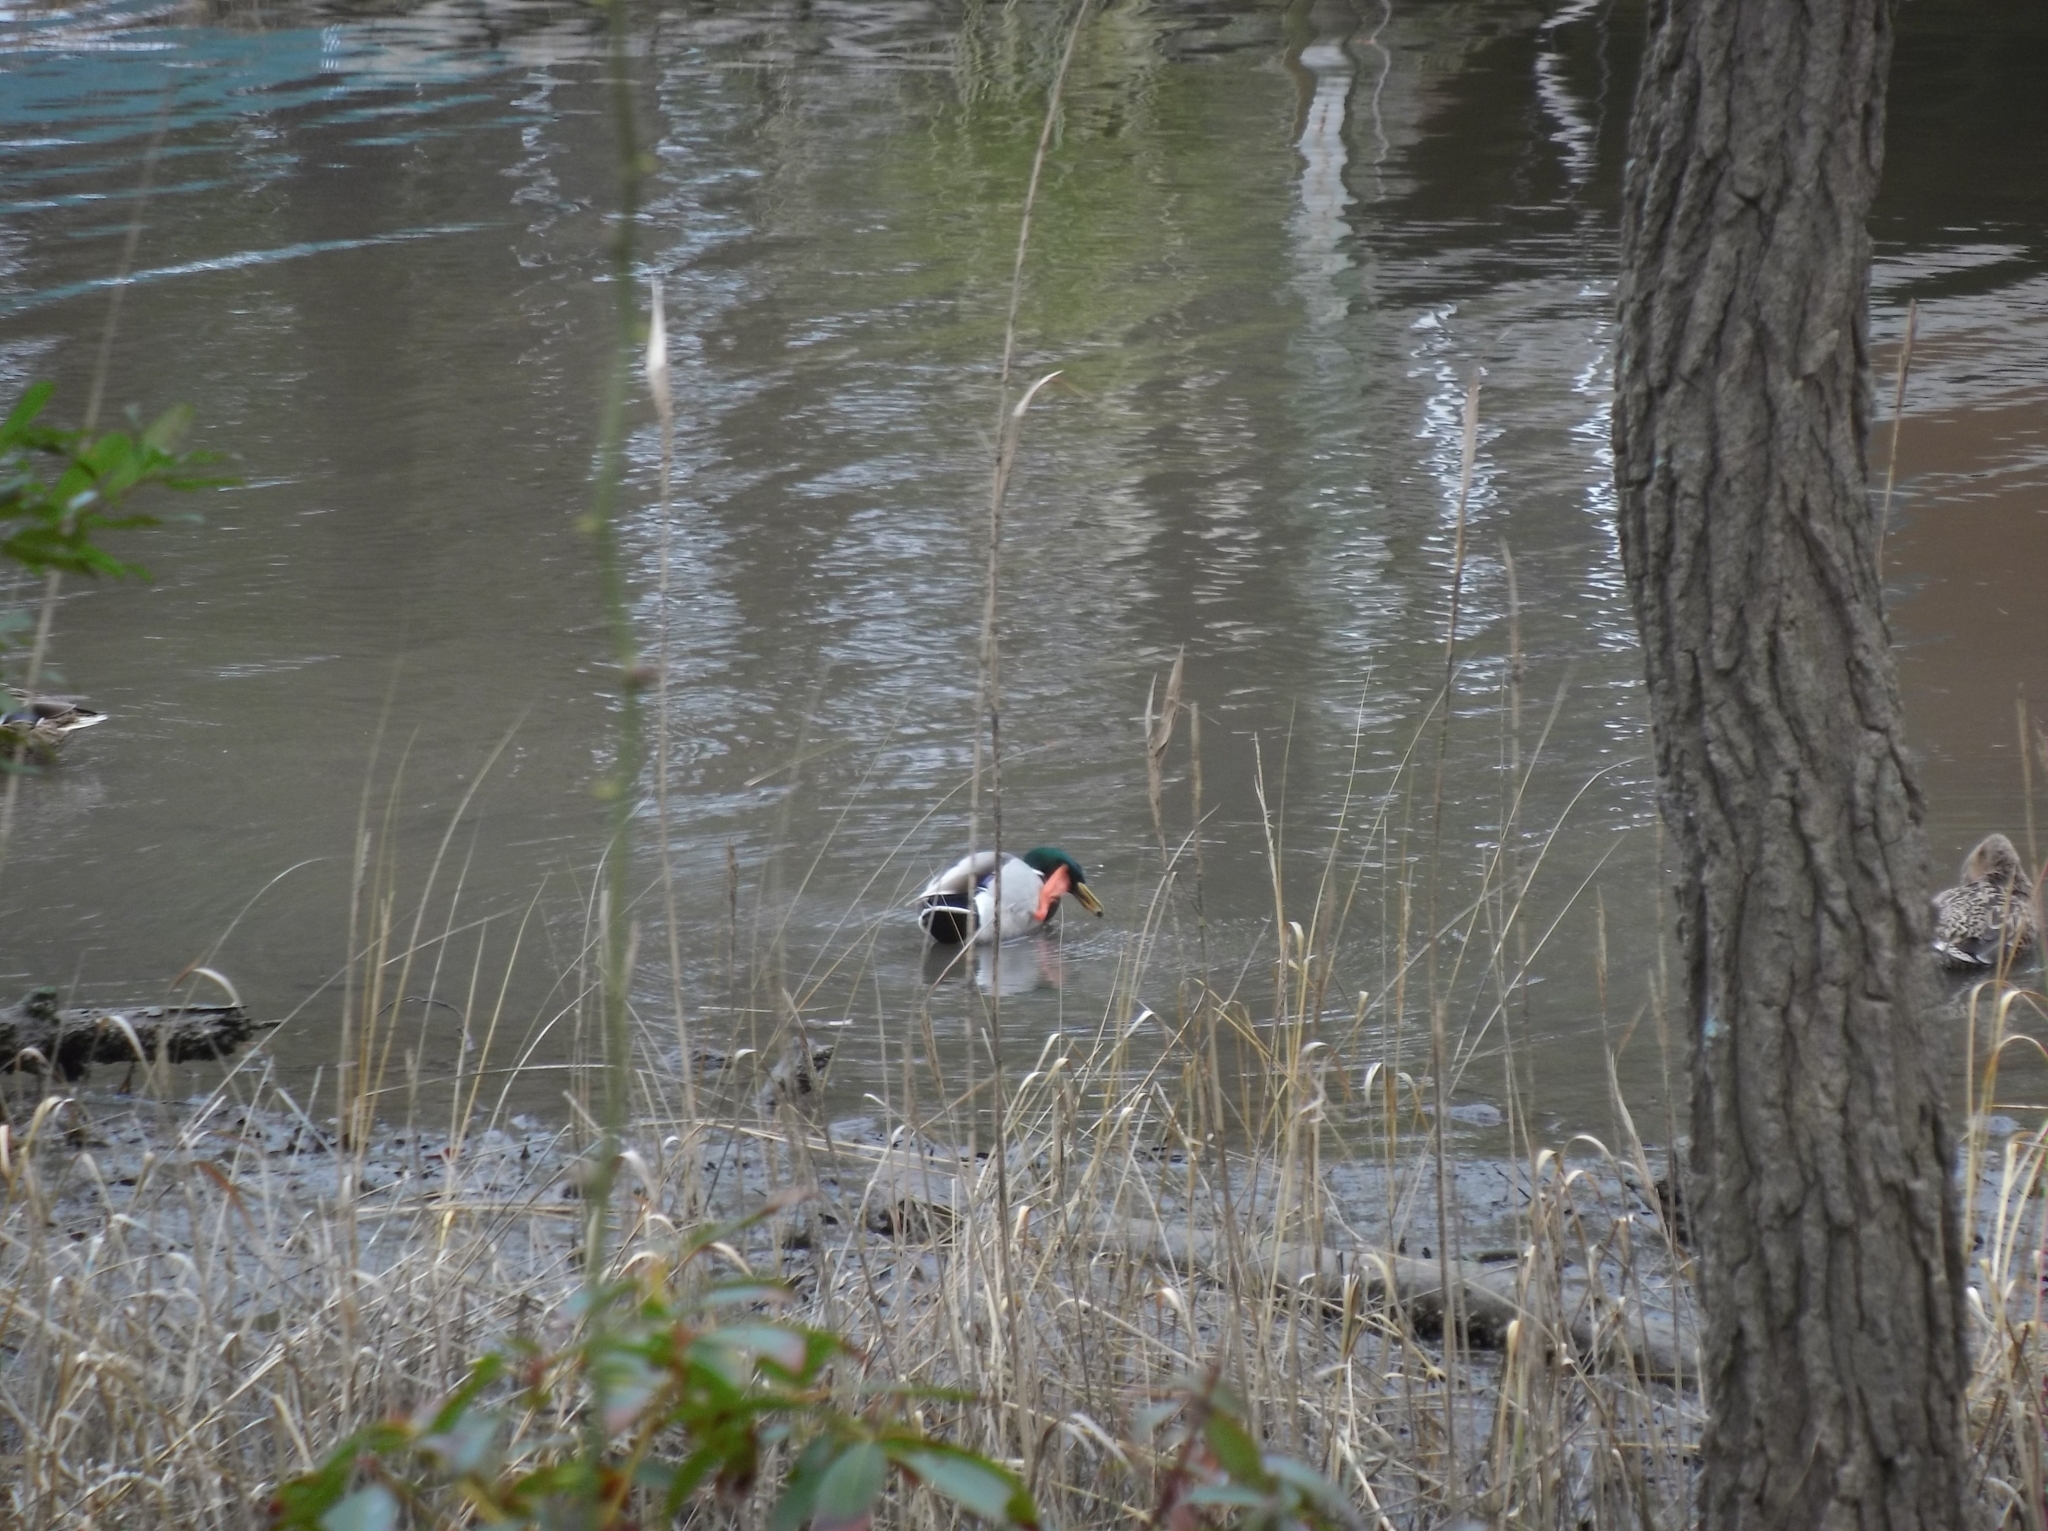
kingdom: Animalia
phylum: Chordata
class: Aves
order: Anseriformes
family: Anatidae
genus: Anas
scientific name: Anas platyrhynchos
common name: Mallard
